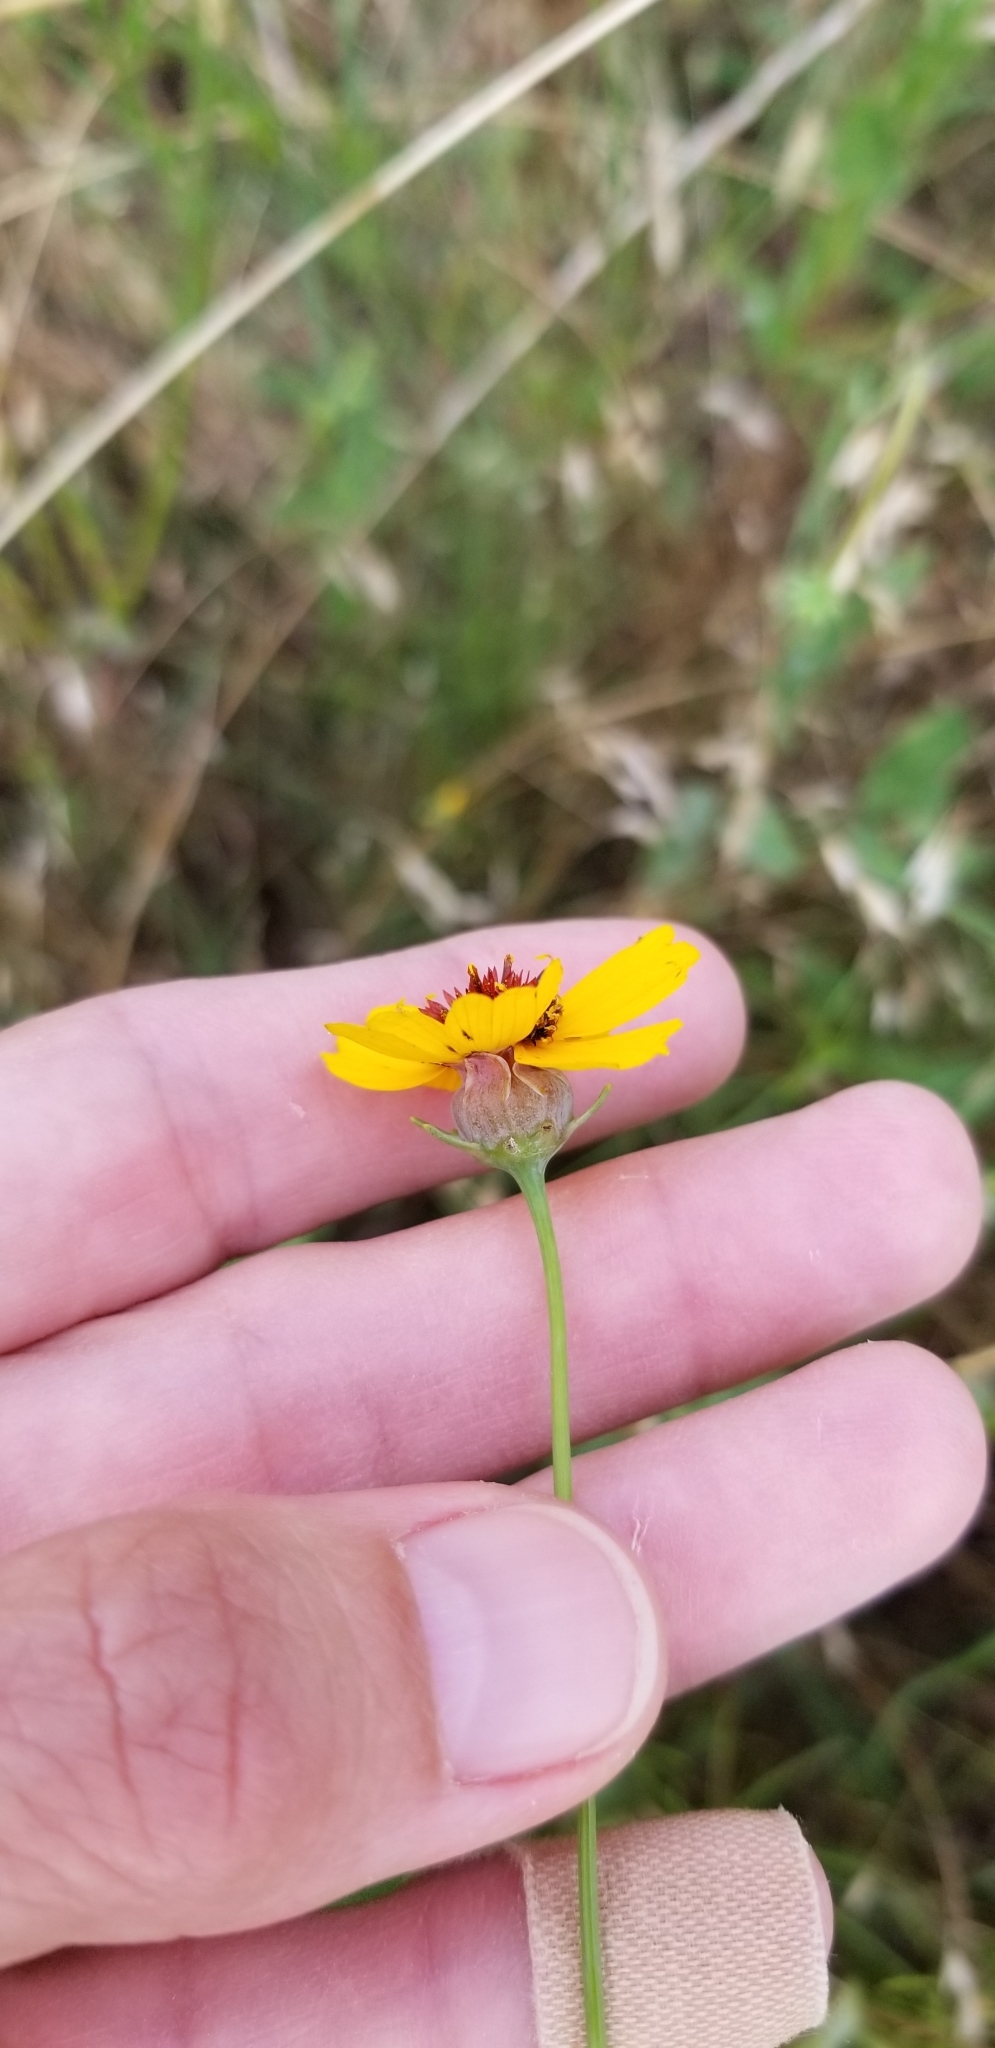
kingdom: Plantae
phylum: Tracheophyta
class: Magnoliopsida
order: Asterales
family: Asteraceae
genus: Thelesperma
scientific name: Thelesperma filifolium
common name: Stiff greenthread
